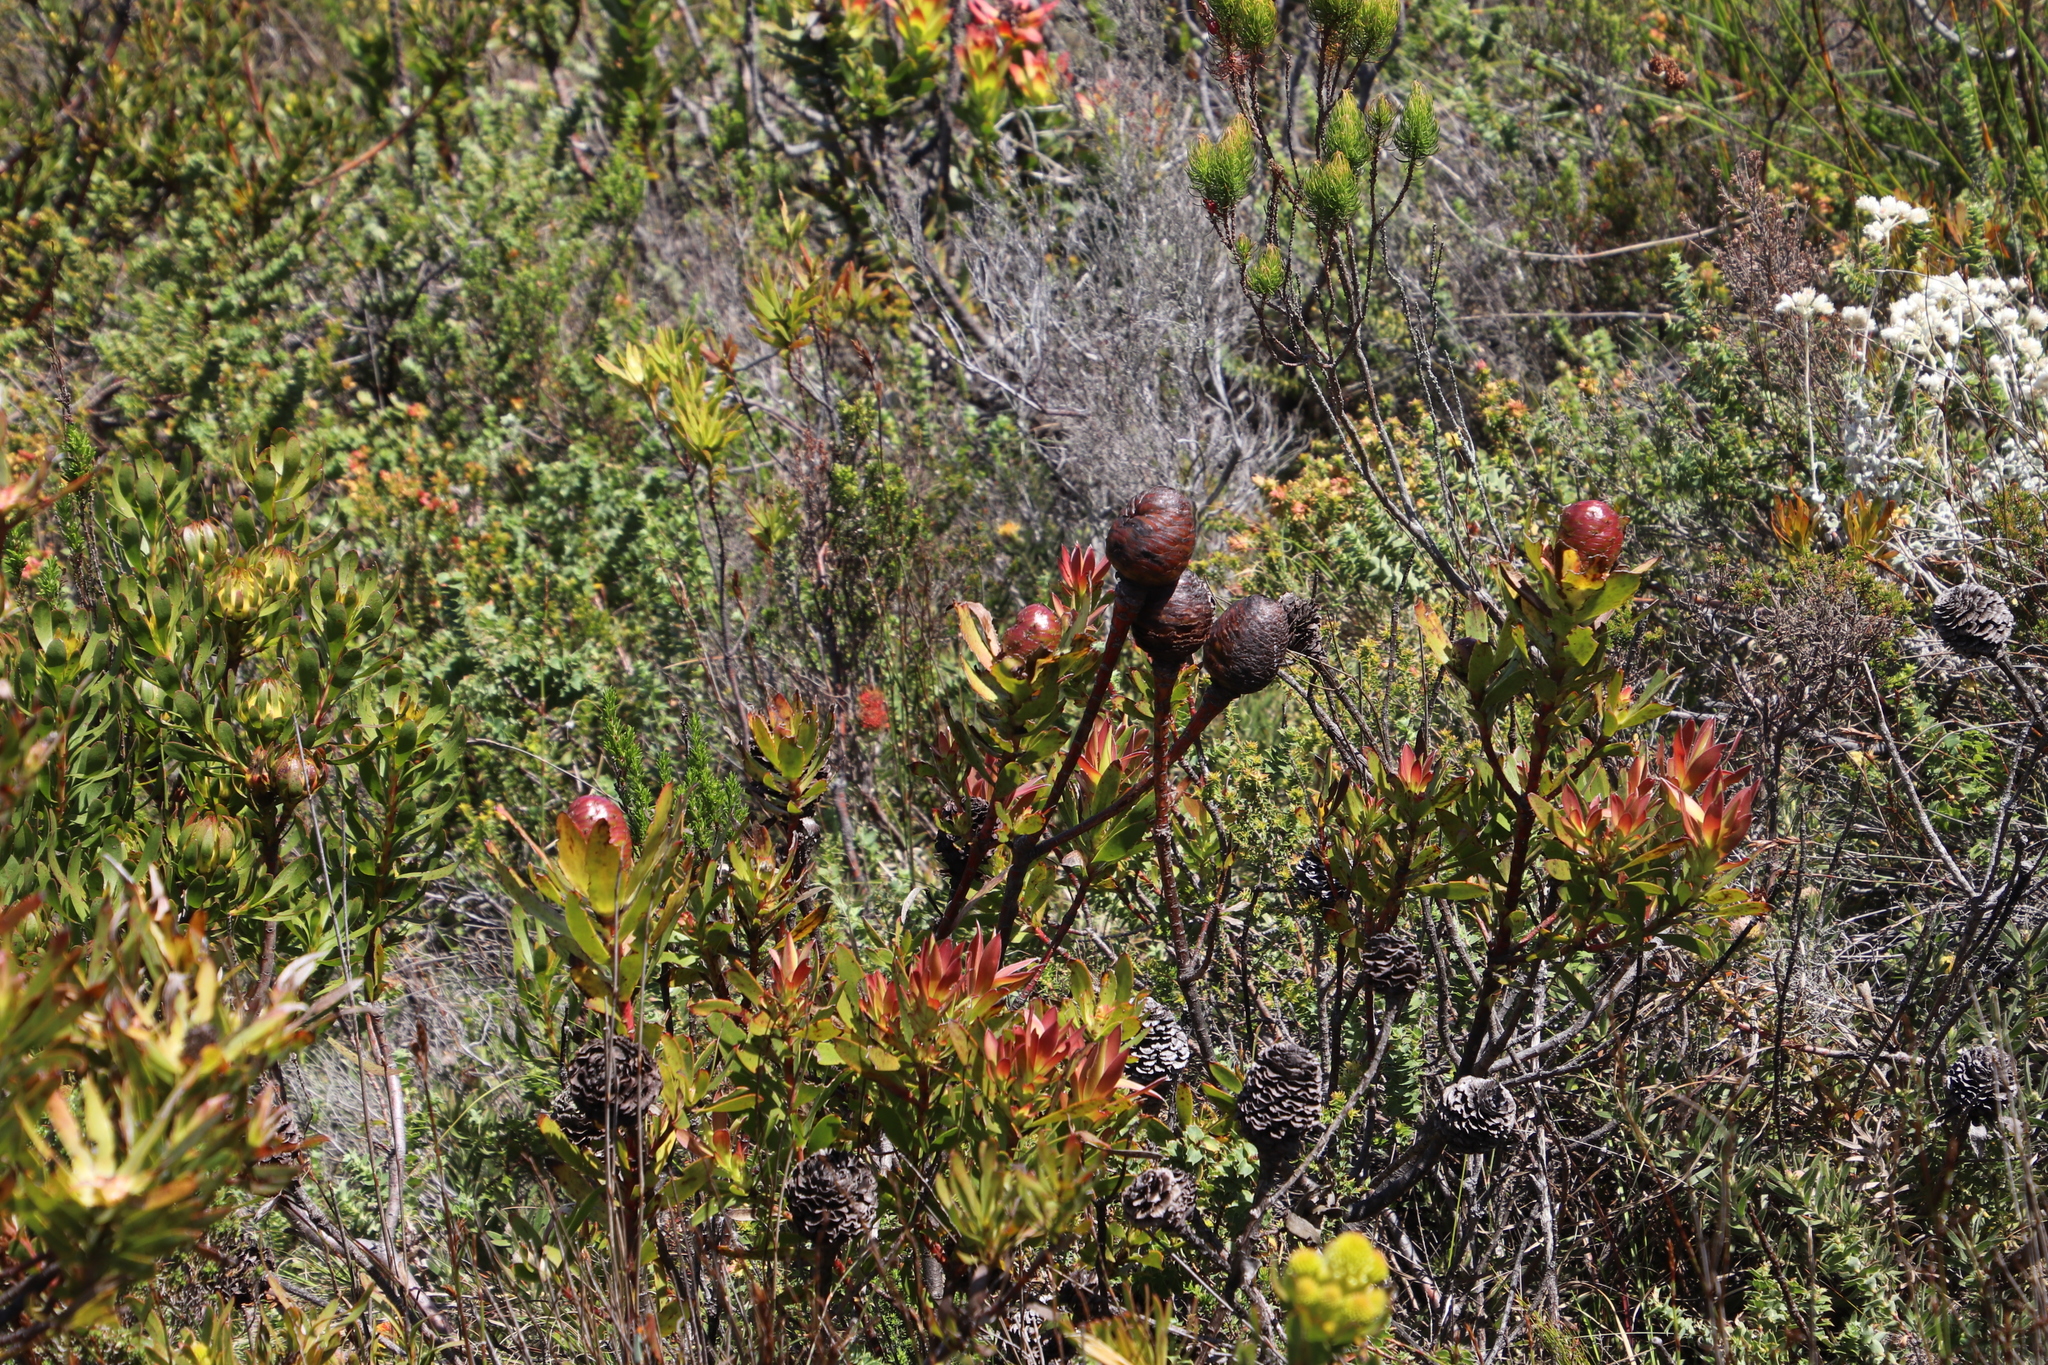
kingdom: Plantae
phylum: Tracheophyta
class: Magnoliopsida
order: Proteales
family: Proteaceae
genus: Leucadendron
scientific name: Leucadendron spissifolium
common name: Spear-leaf conebush
